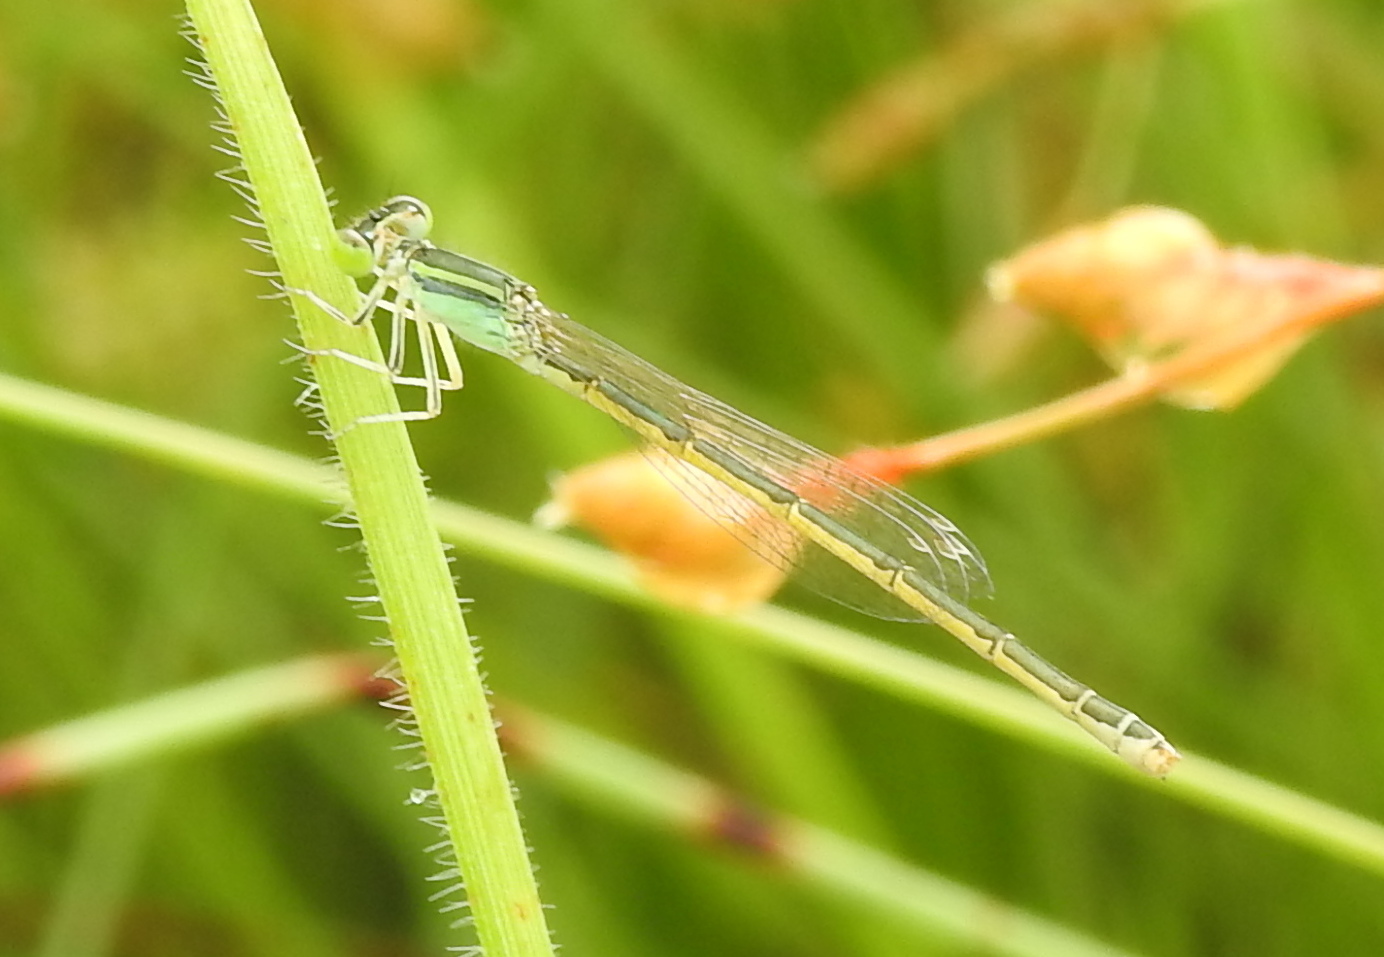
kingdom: Animalia
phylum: Arthropoda
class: Insecta
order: Odonata
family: Coenagrionidae
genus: Ischnura
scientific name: Ischnura rubilio
